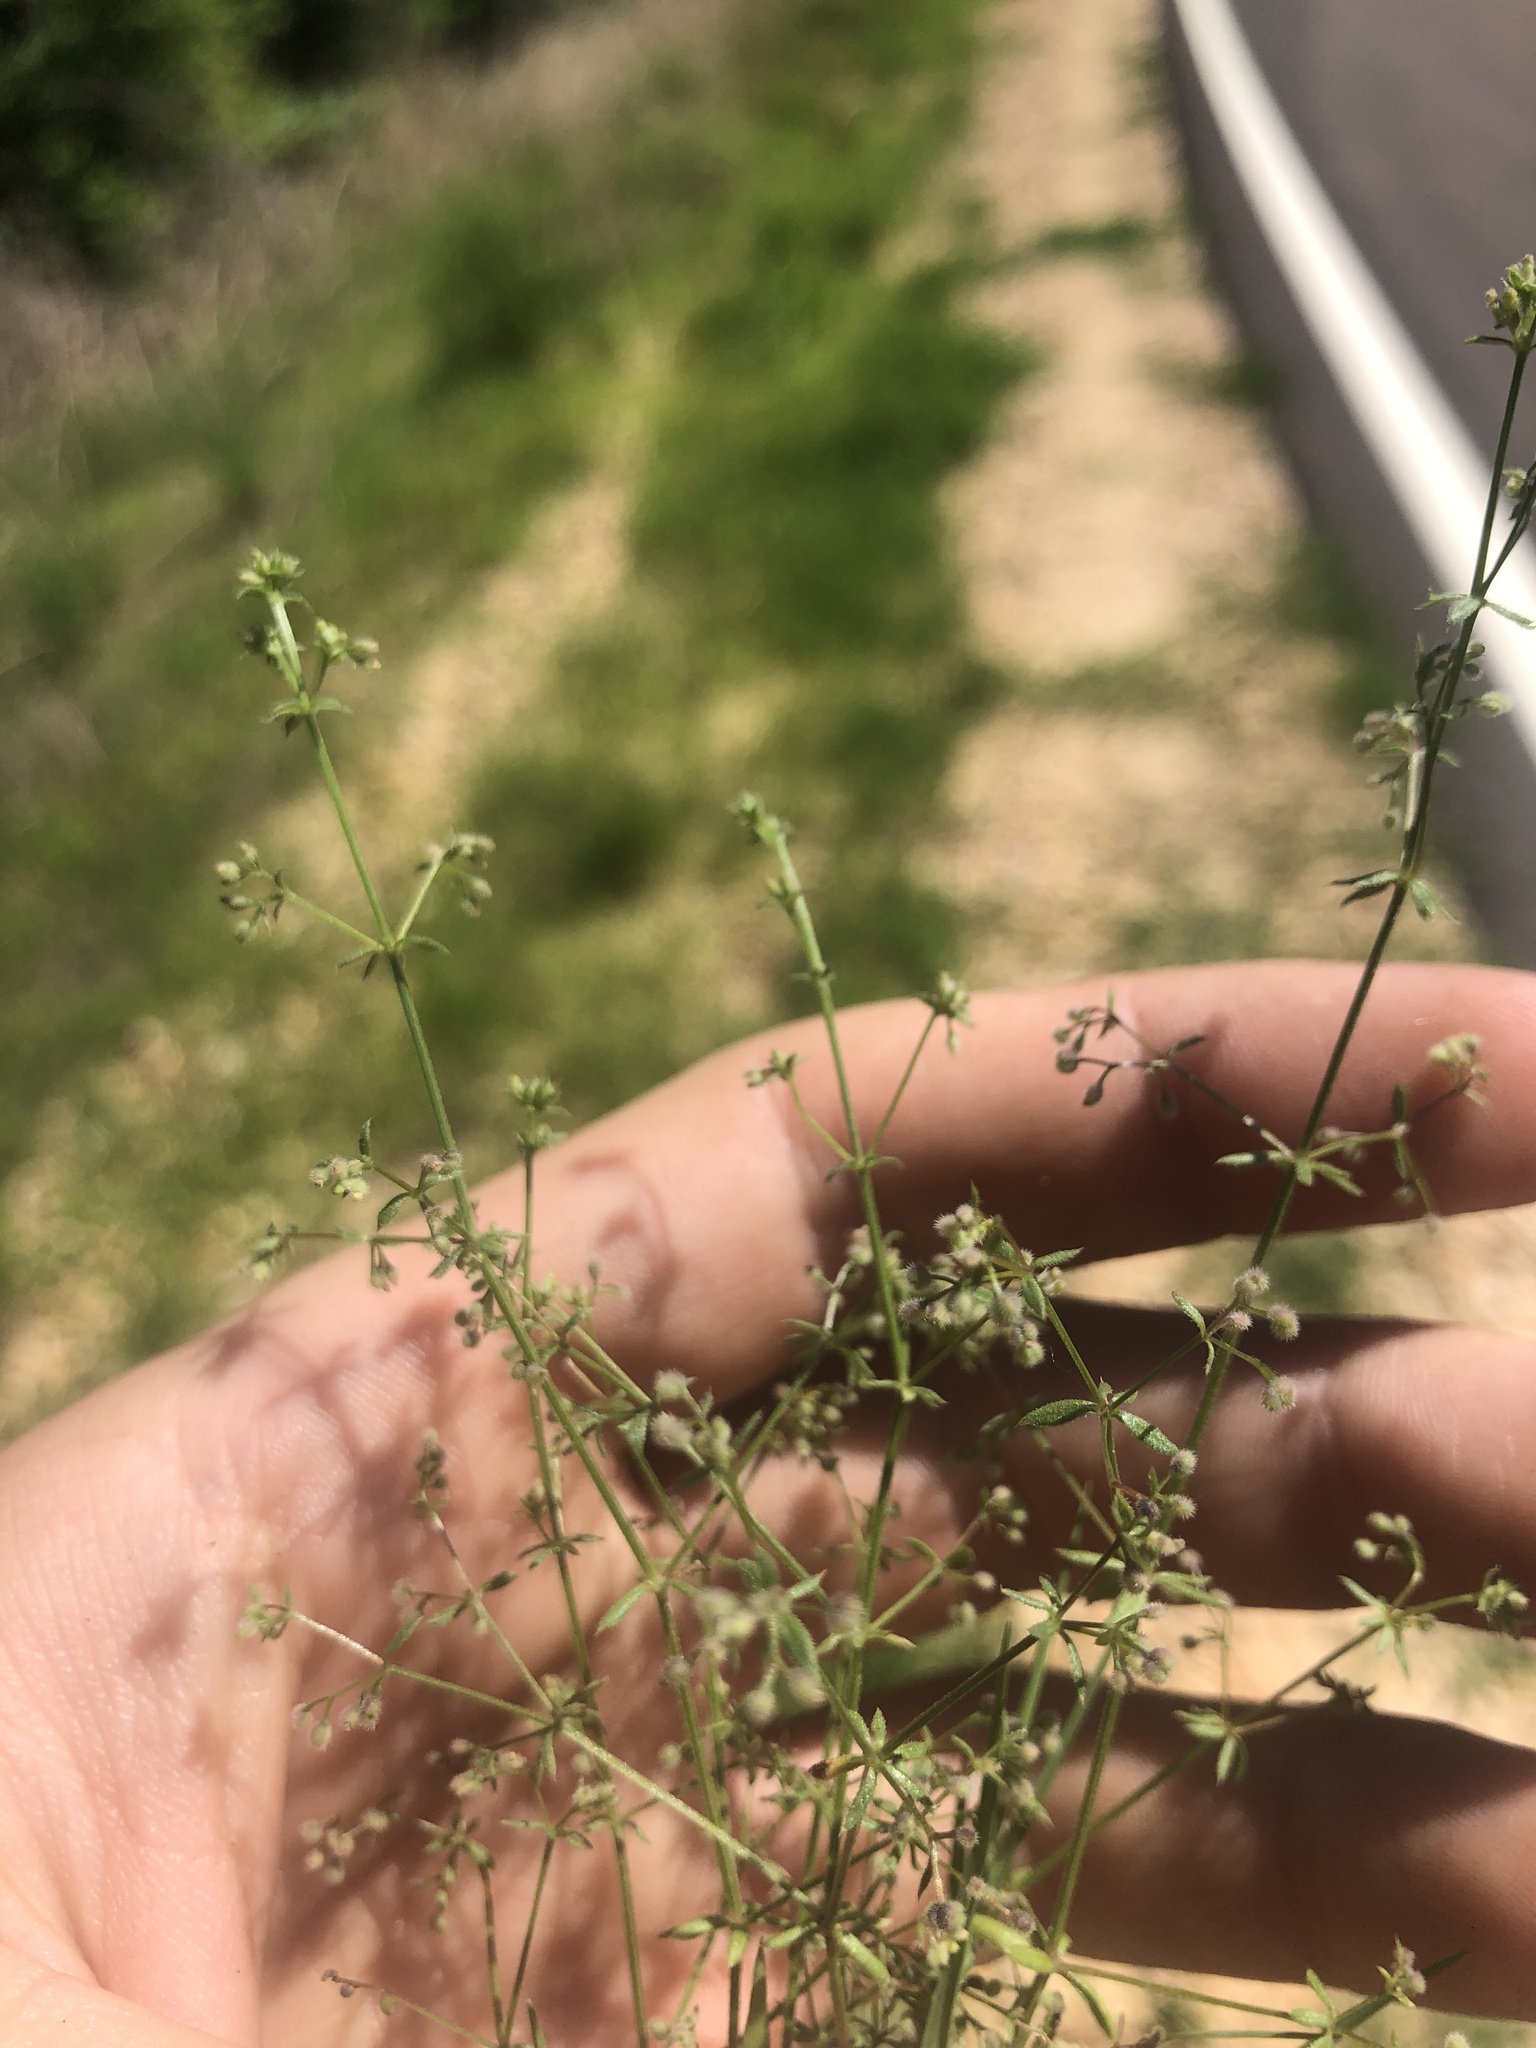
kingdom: Plantae
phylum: Tracheophyta
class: Magnoliopsida
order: Gentianales
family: Rubiaceae
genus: Galium
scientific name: Galium parisiense
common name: Wall bedstraw
